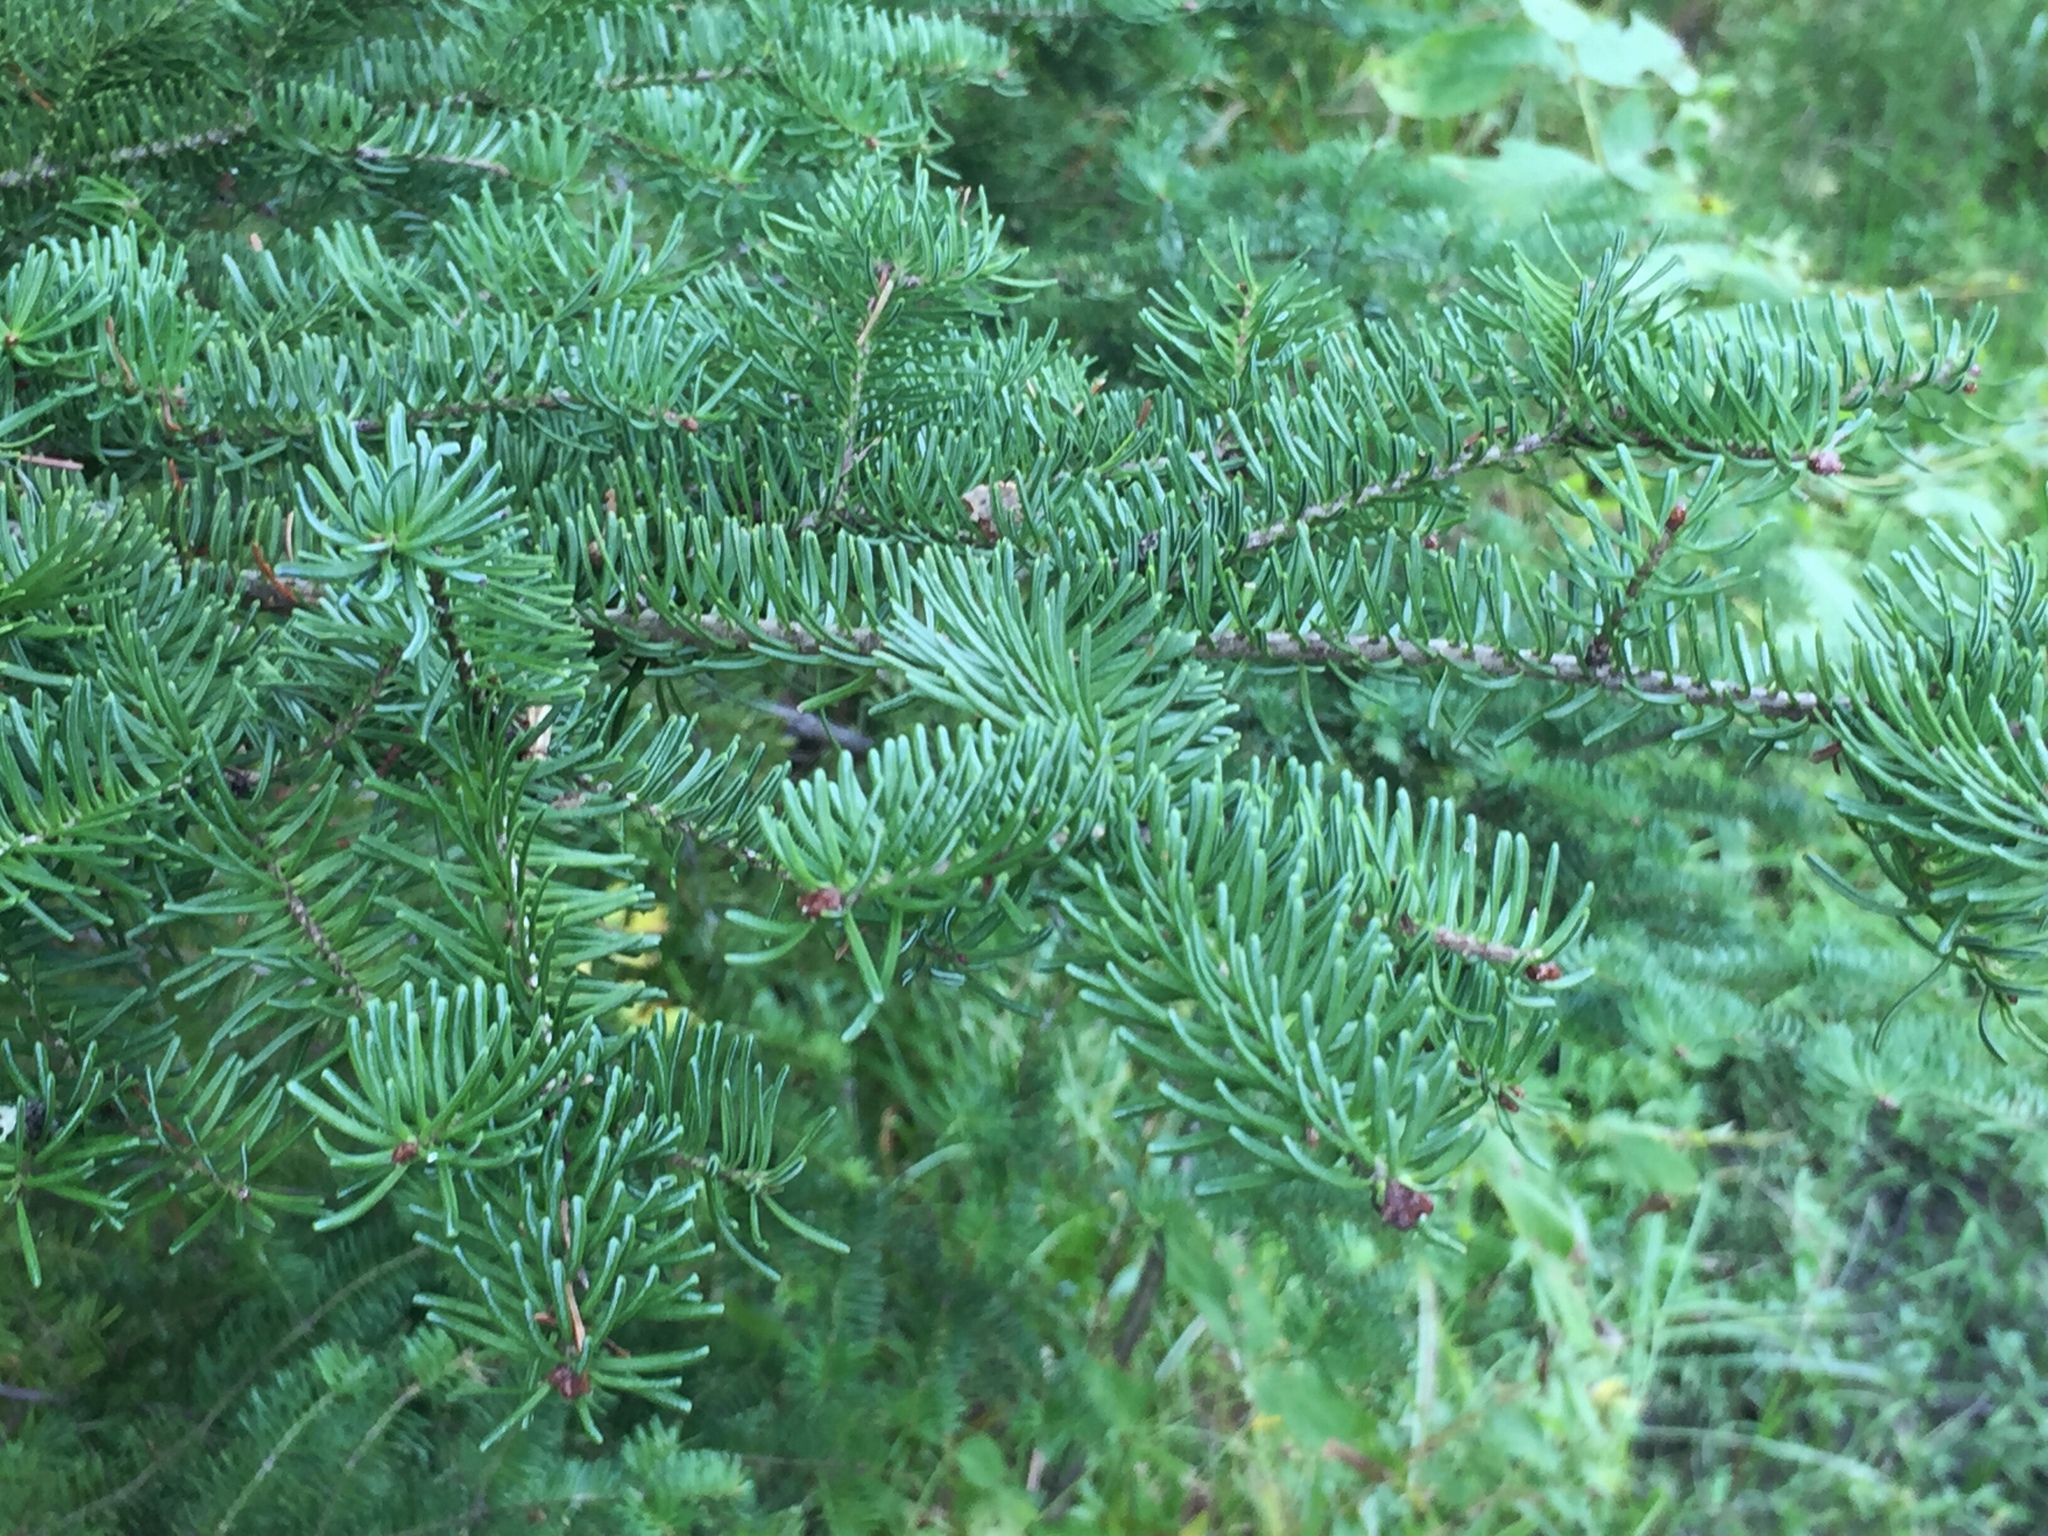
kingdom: Plantae
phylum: Tracheophyta
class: Pinopsida
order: Pinales
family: Pinaceae
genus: Abies
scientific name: Abies balsamea
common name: Balsam fir
